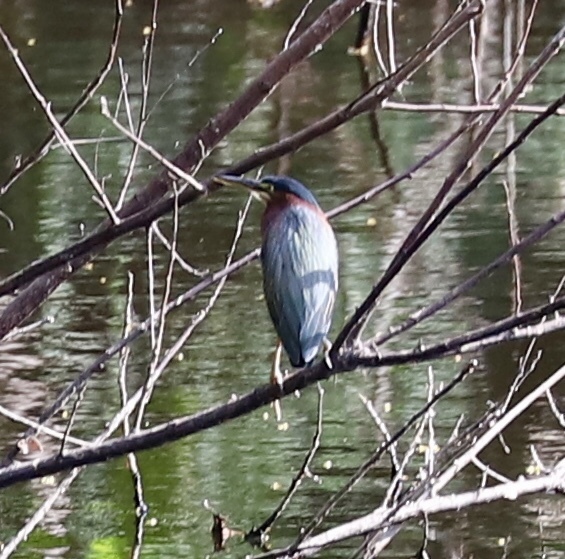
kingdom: Animalia
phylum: Chordata
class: Aves
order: Pelecaniformes
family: Ardeidae
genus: Butorides
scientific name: Butorides virescens
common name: Green heron
